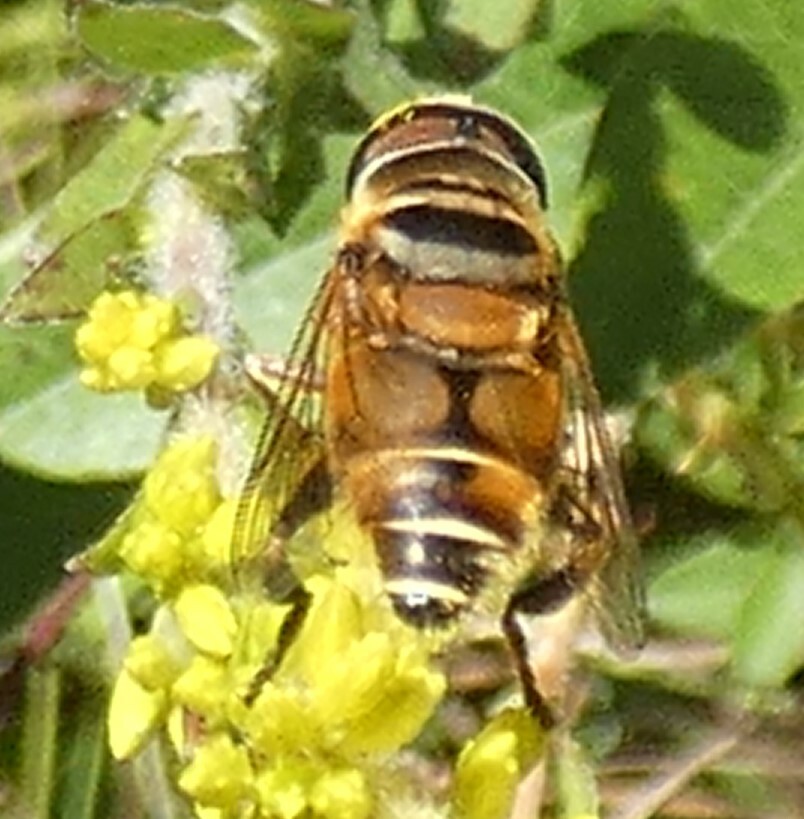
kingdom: Animalia
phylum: Arthropoda
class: Insecta
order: Diptera
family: Syrphidae
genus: Palpada
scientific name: Palpada vinetorum
